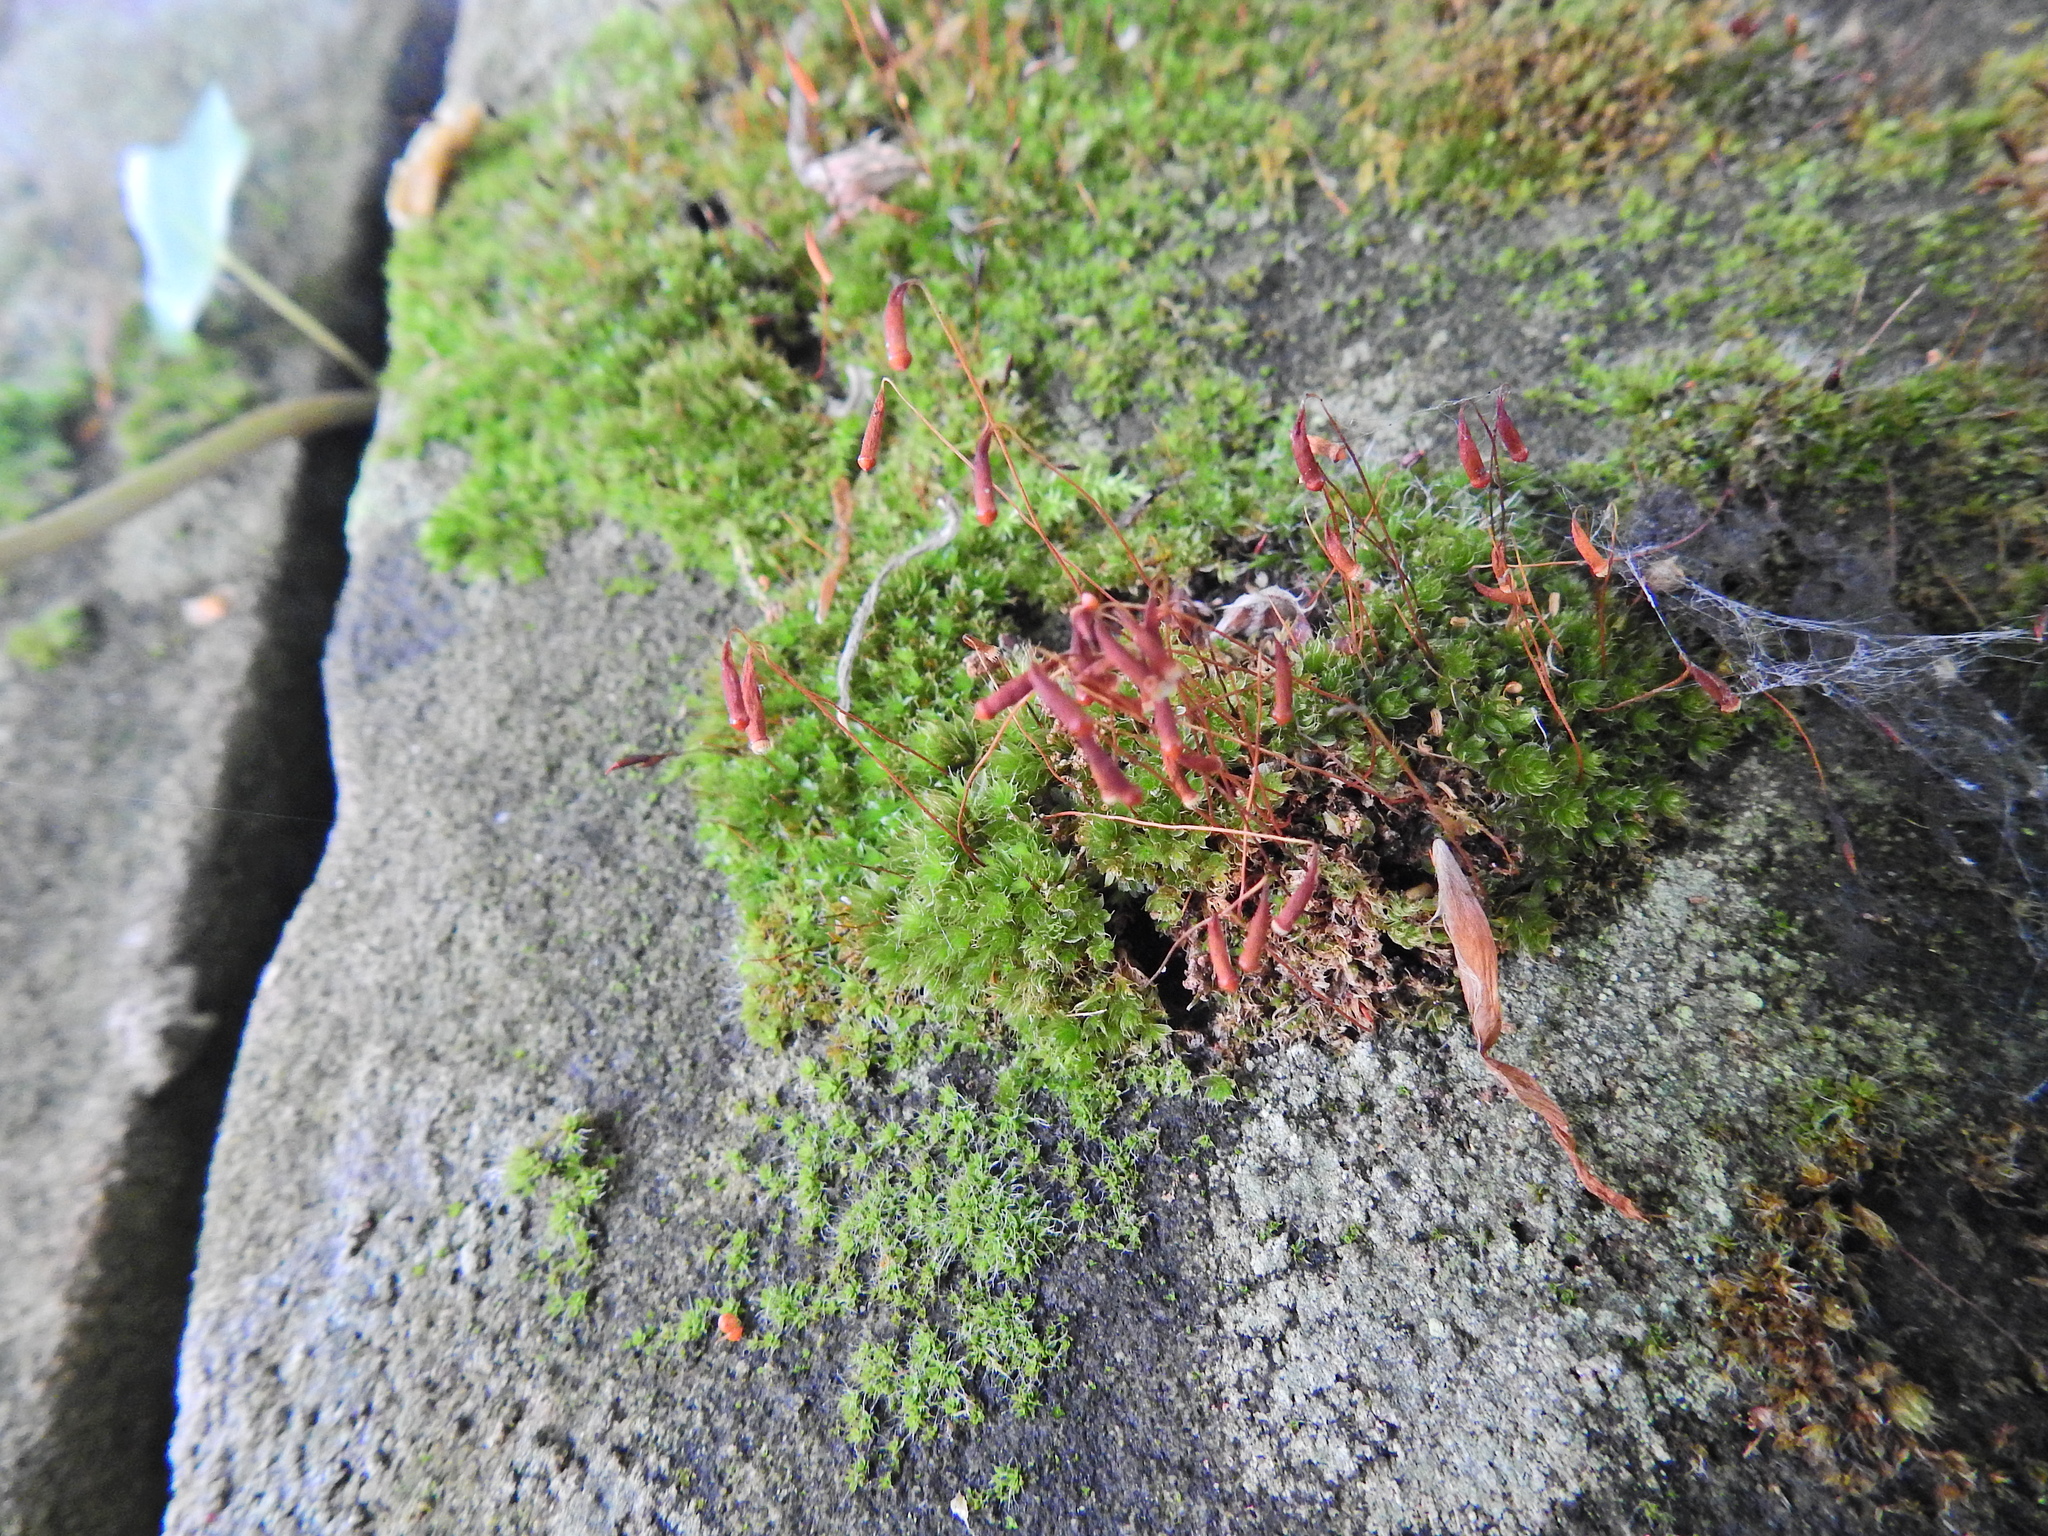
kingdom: Plantae
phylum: Bryophyta
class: Bryopsida
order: Bryales
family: Bryaceae
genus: Rosulabryum
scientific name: Rosulabryum capillare
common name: Capillary thread-moss
